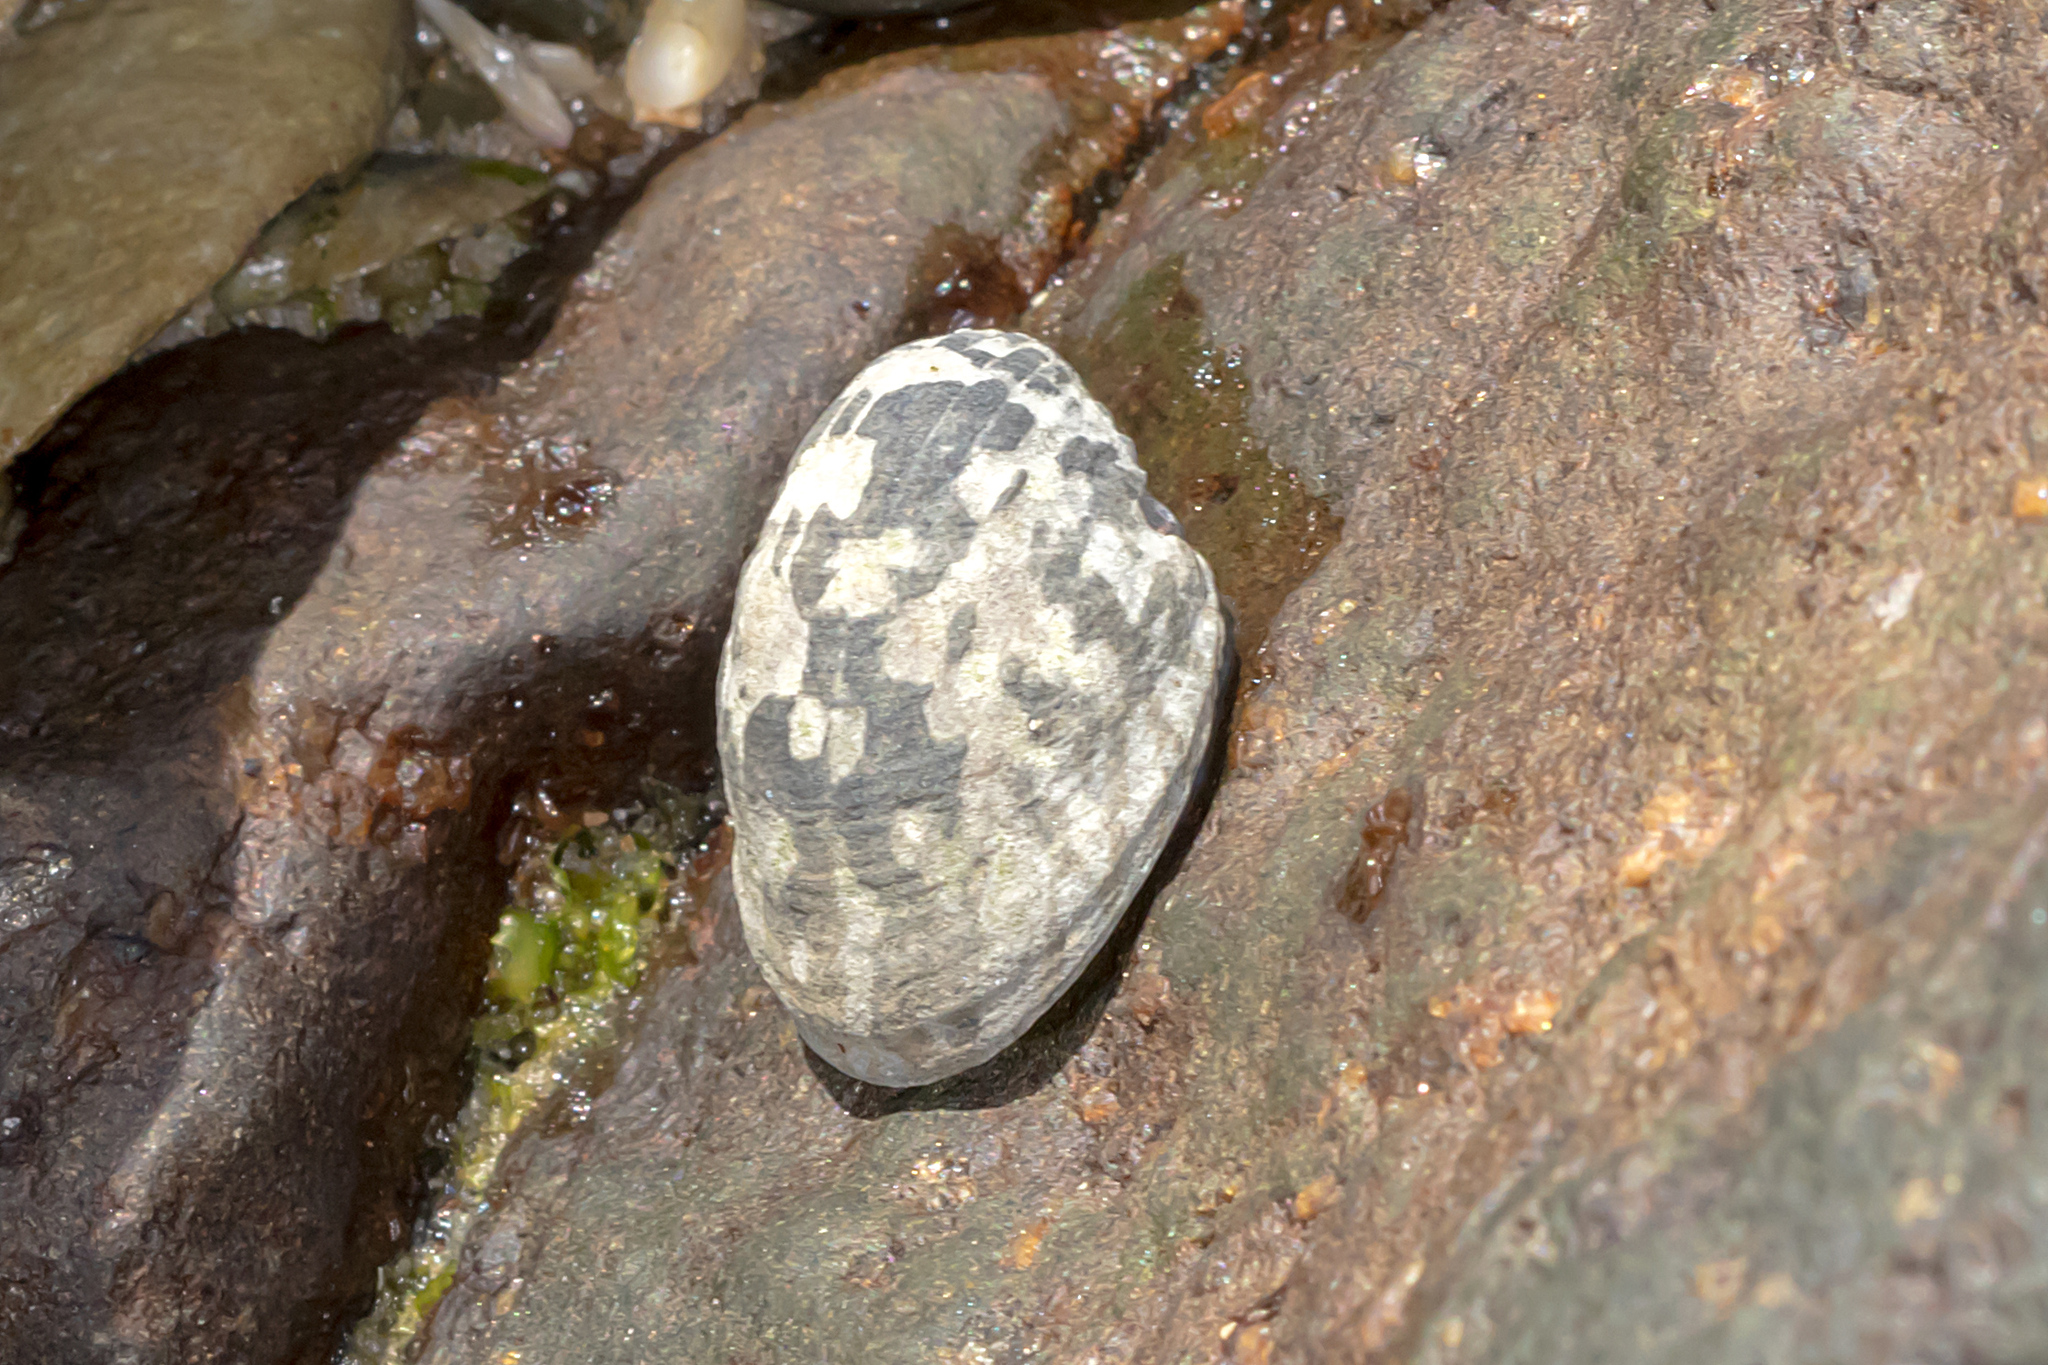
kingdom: Animalia
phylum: Mollusca
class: Gastropoda
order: Cycloneritida
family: Neritidae
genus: Nerita
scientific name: Nerita albicilla
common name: Blotched nerite
